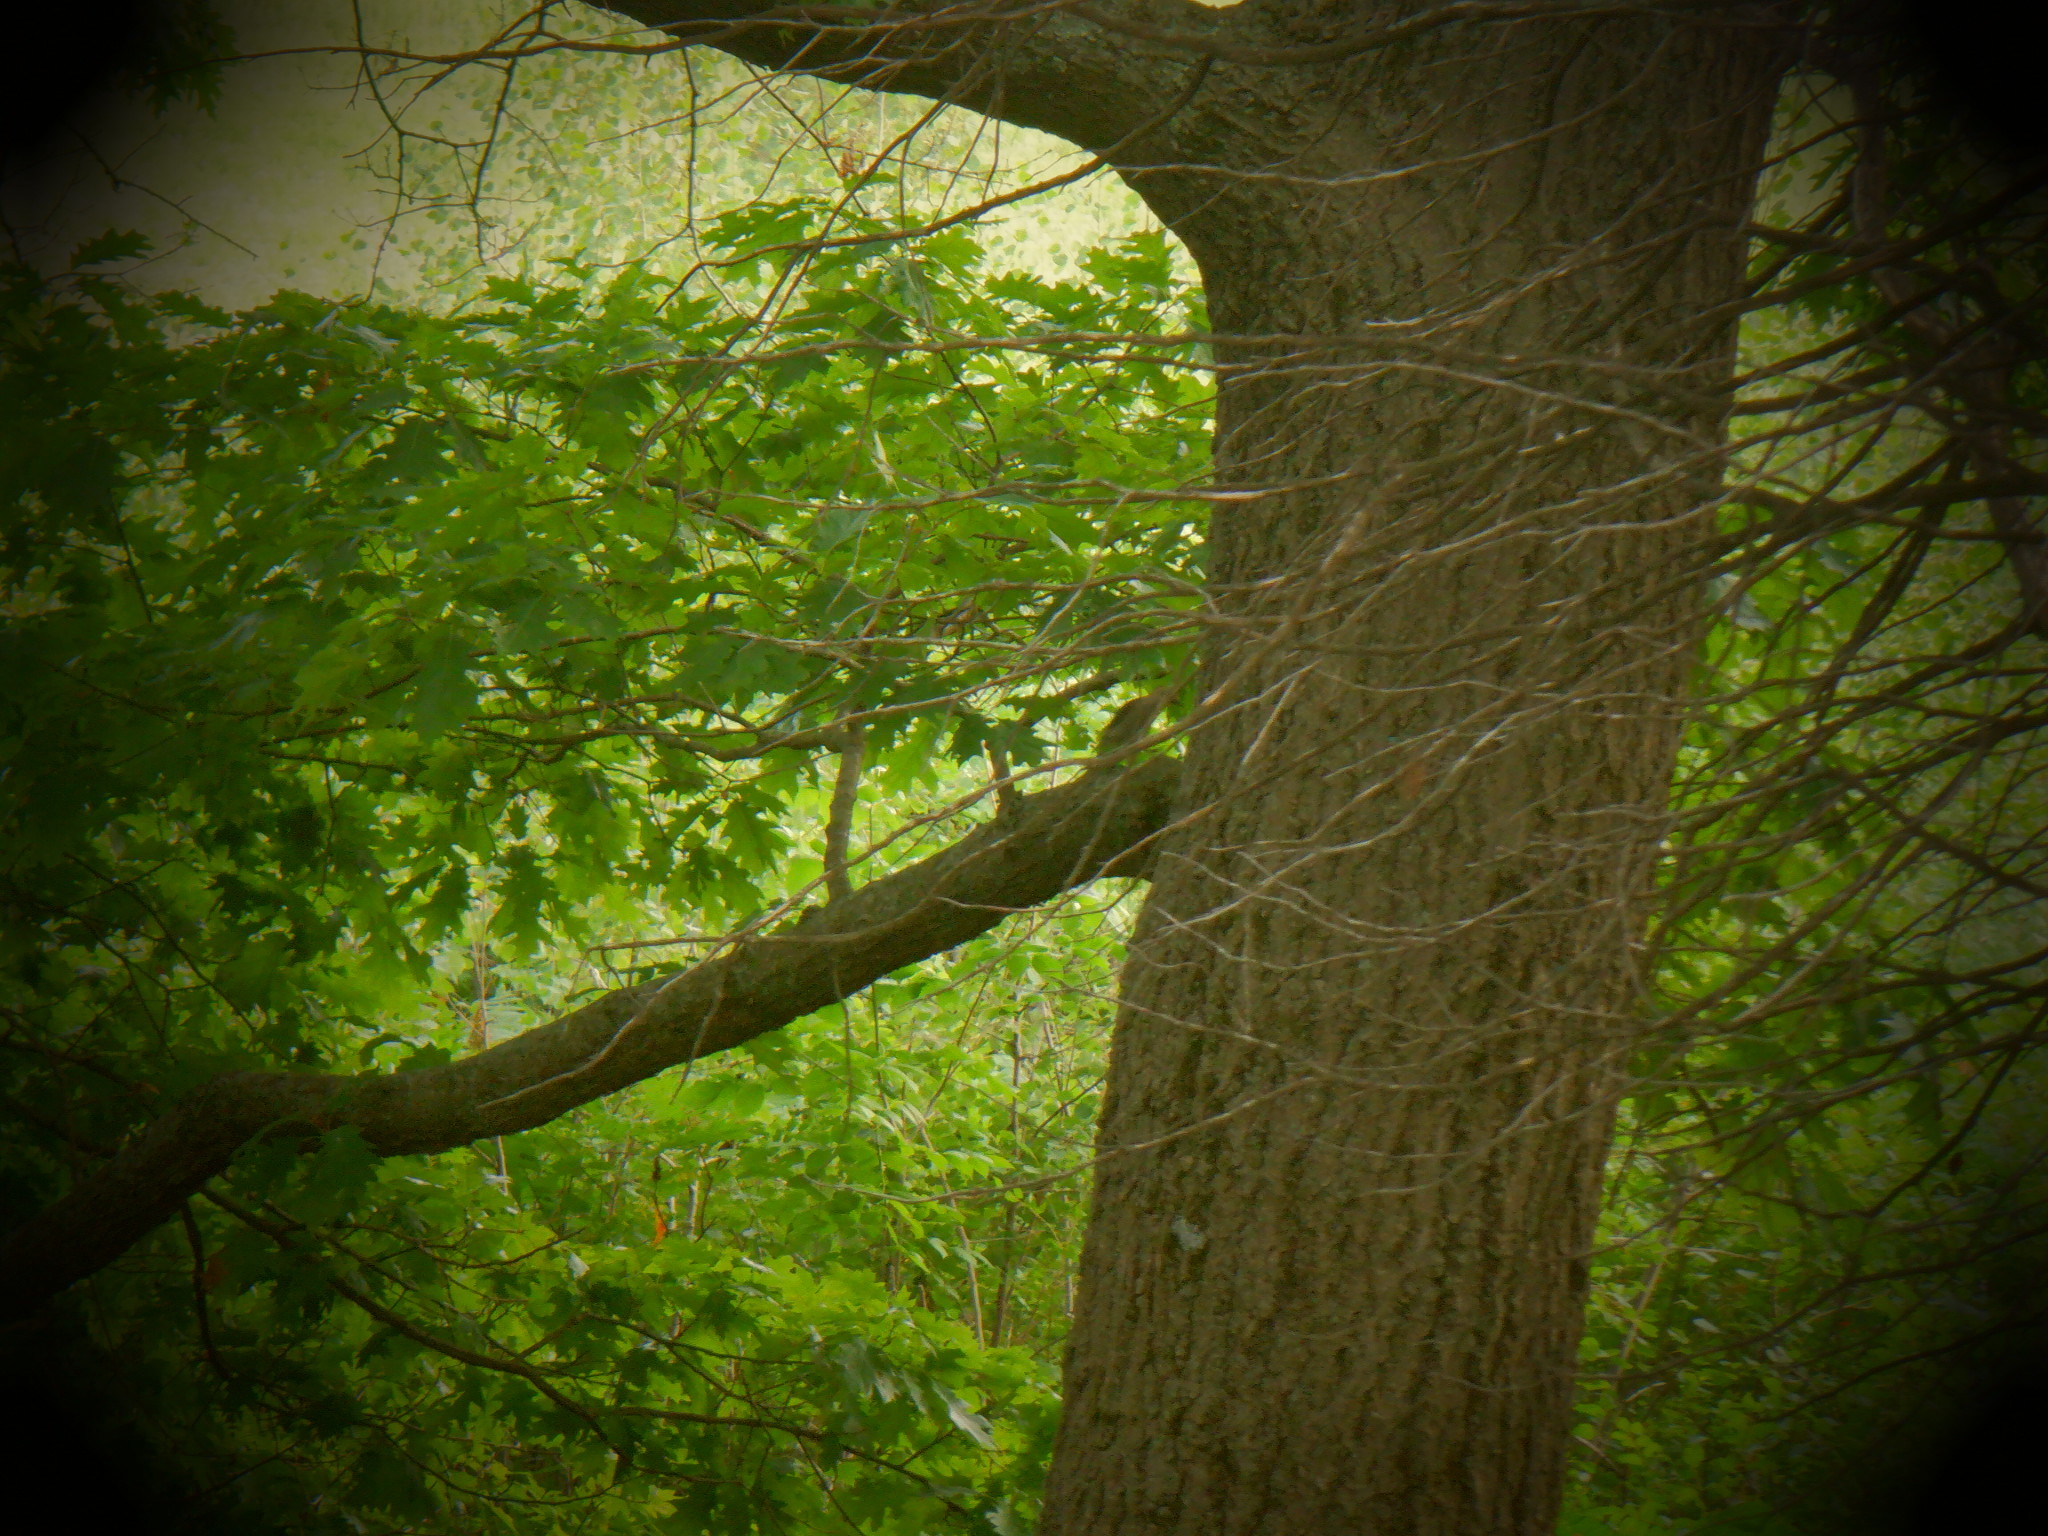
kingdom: Animalia
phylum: Chordata
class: Aves
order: Piciformes
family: Picidae
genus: Melanerpes
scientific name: Melanerpes carolinus
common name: Red-bellied woodpecker
